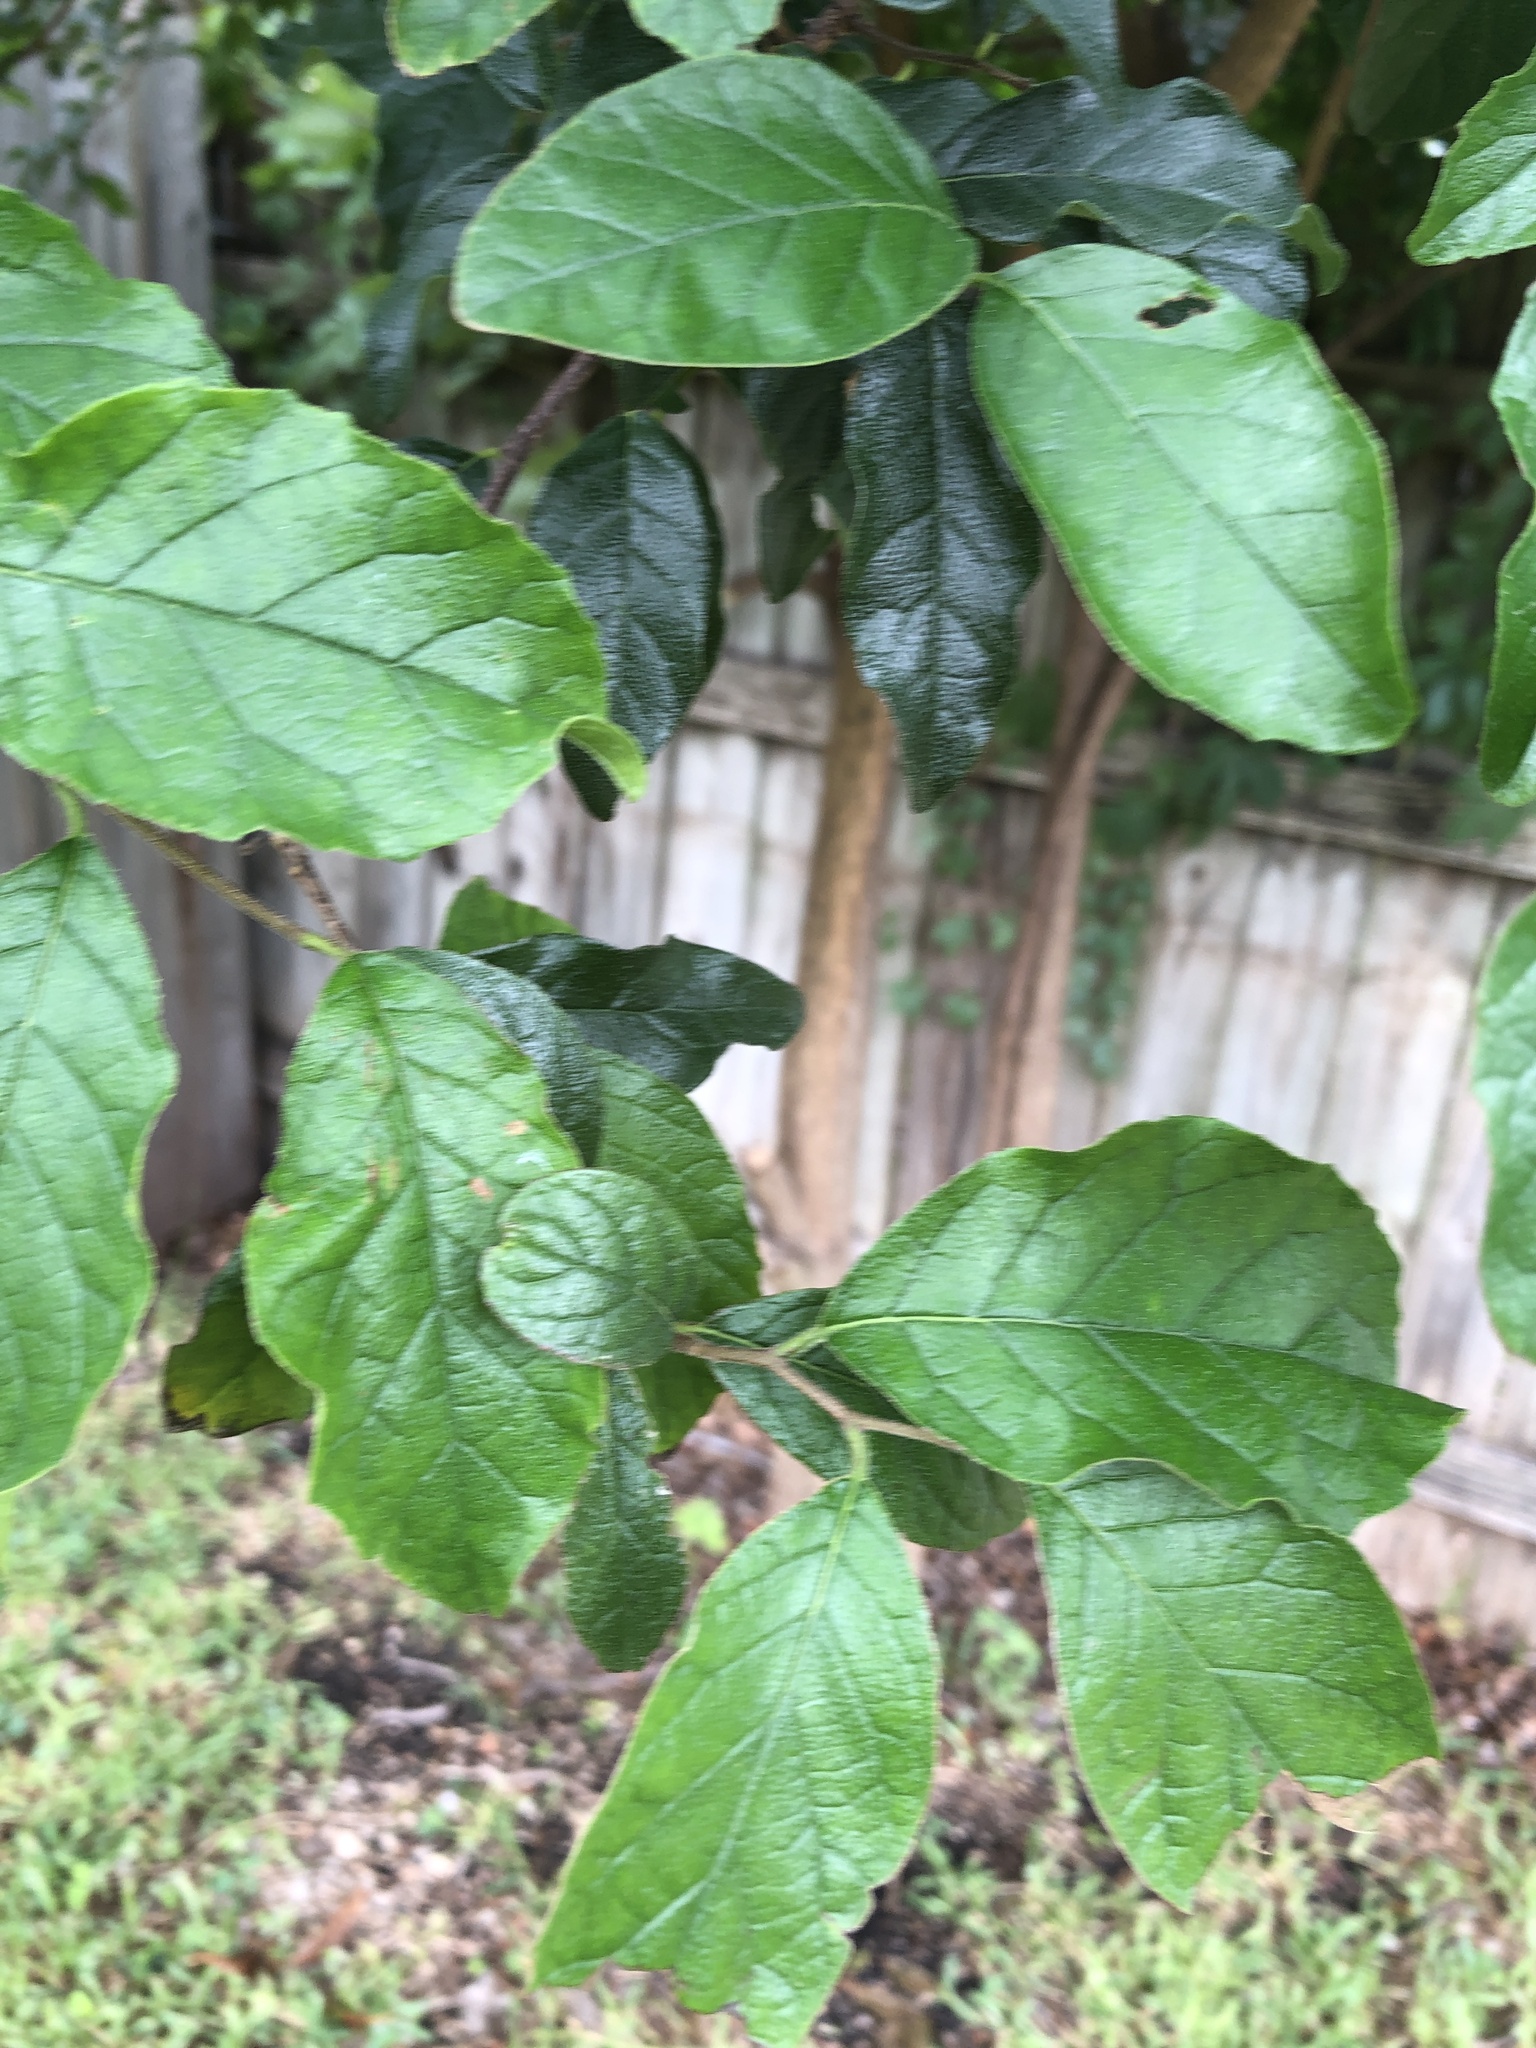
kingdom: Plantae
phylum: Tracheophyta
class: Magnoliopsida
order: Boraginales
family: Ehretiaceae
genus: Ehretia
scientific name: Ehretia anacua
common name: Sugarberry
